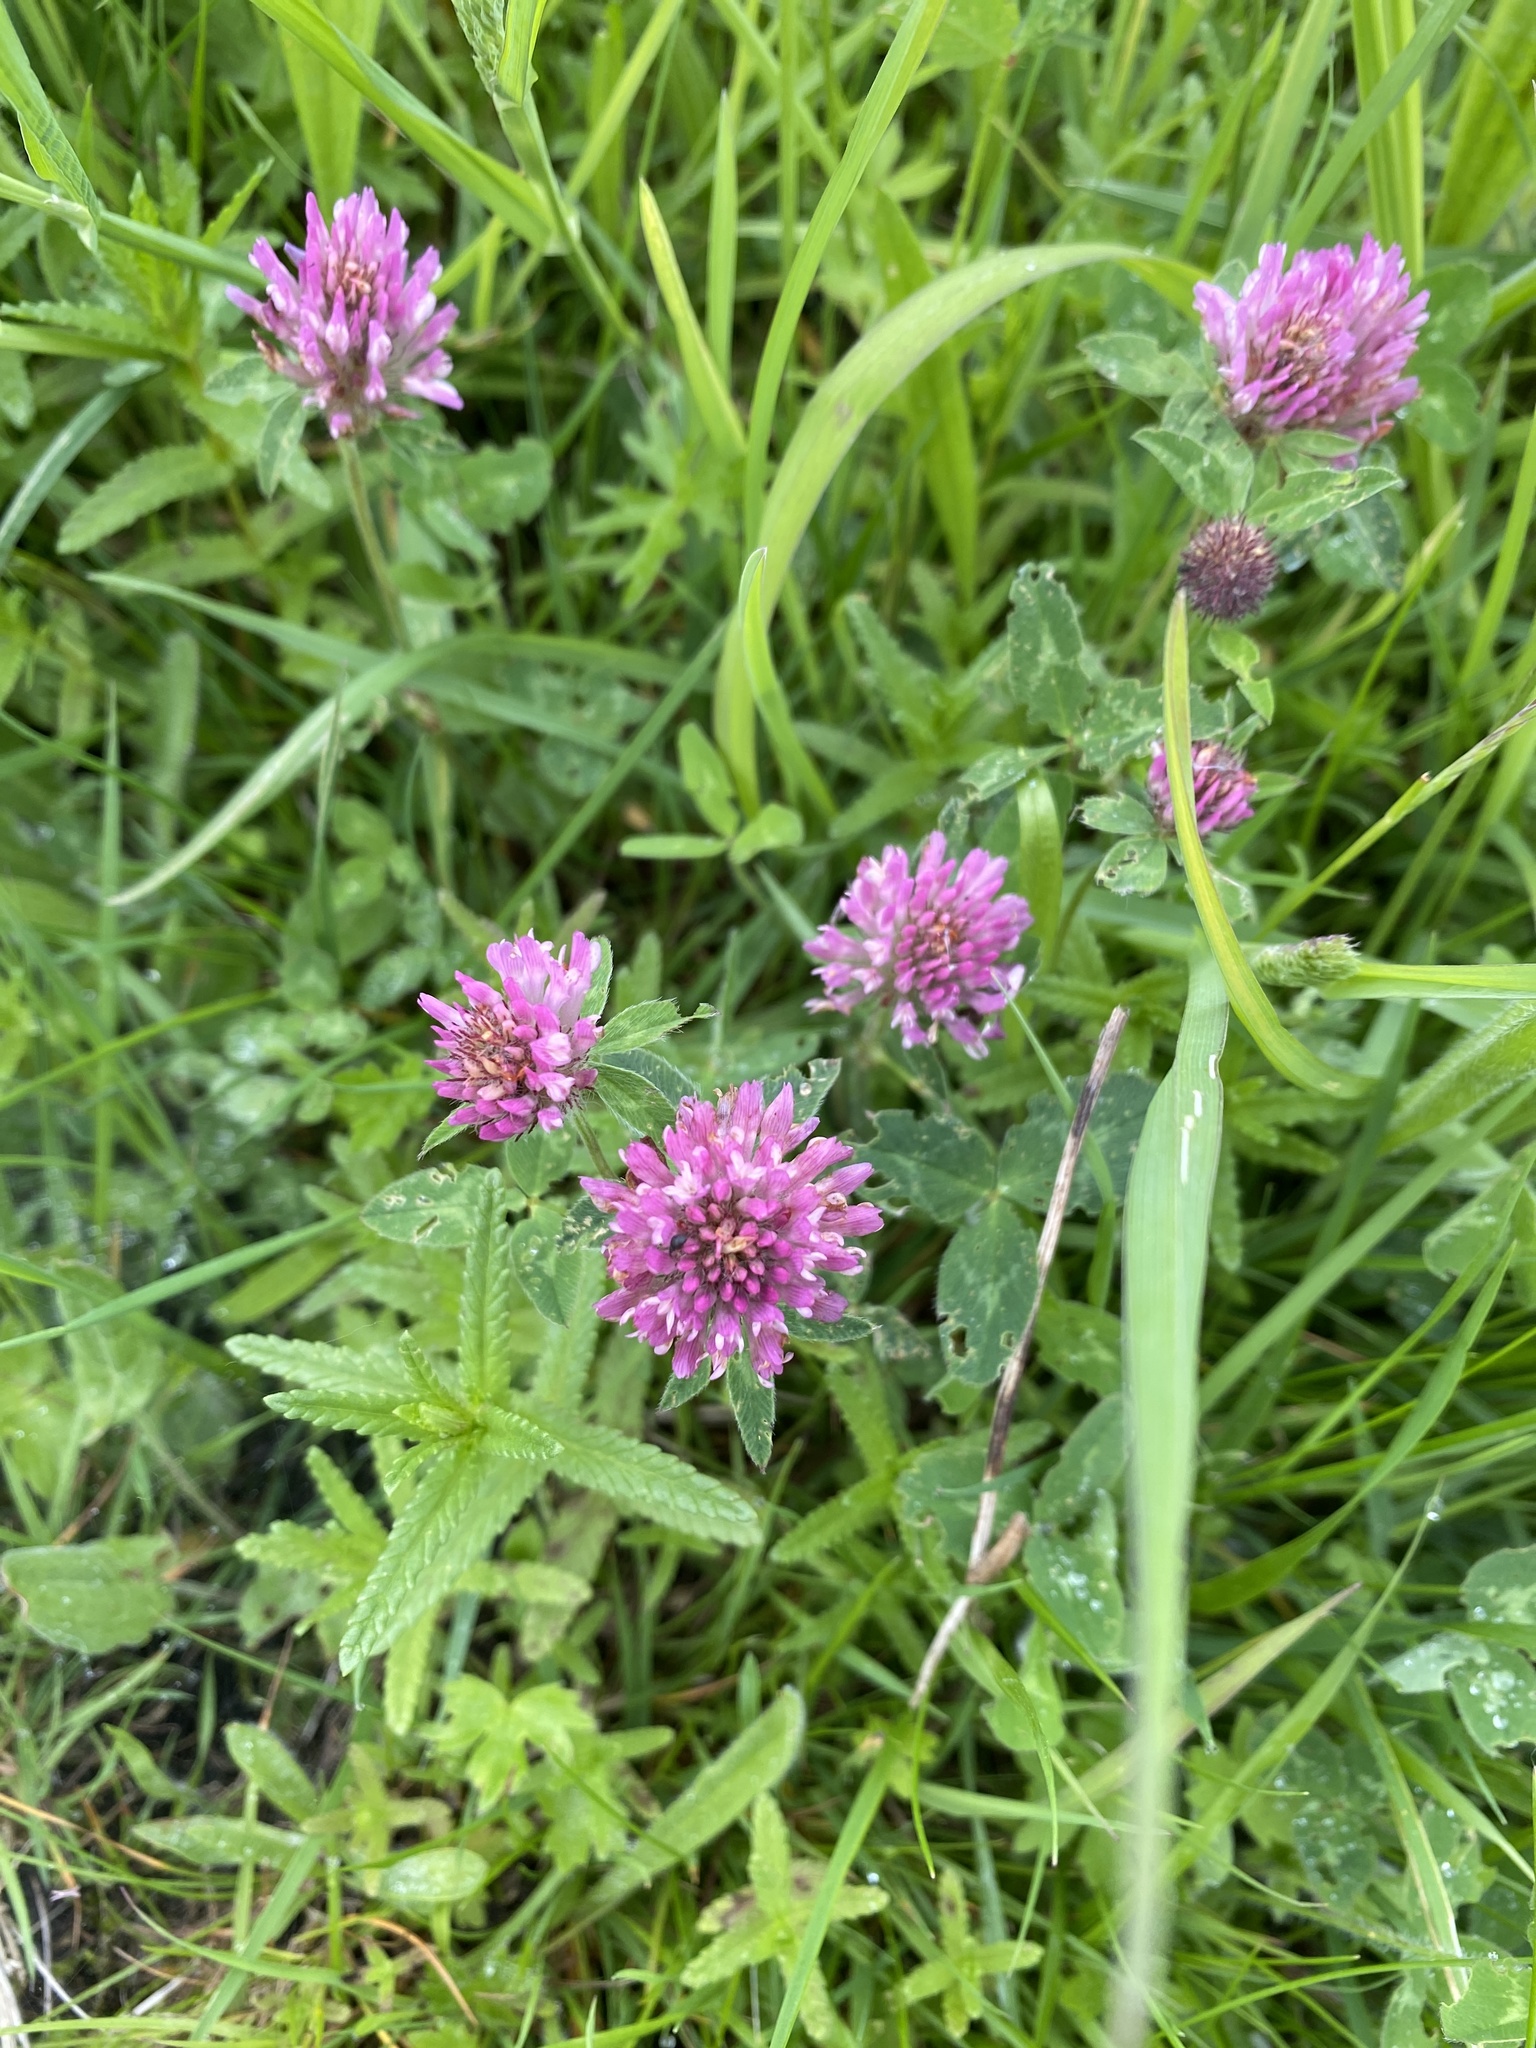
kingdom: Plantae
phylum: Tracheophyta
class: Magnoliopsida
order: Fabales
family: Fabaceae
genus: Trifolium
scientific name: Trifolium pratense
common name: Red clover
